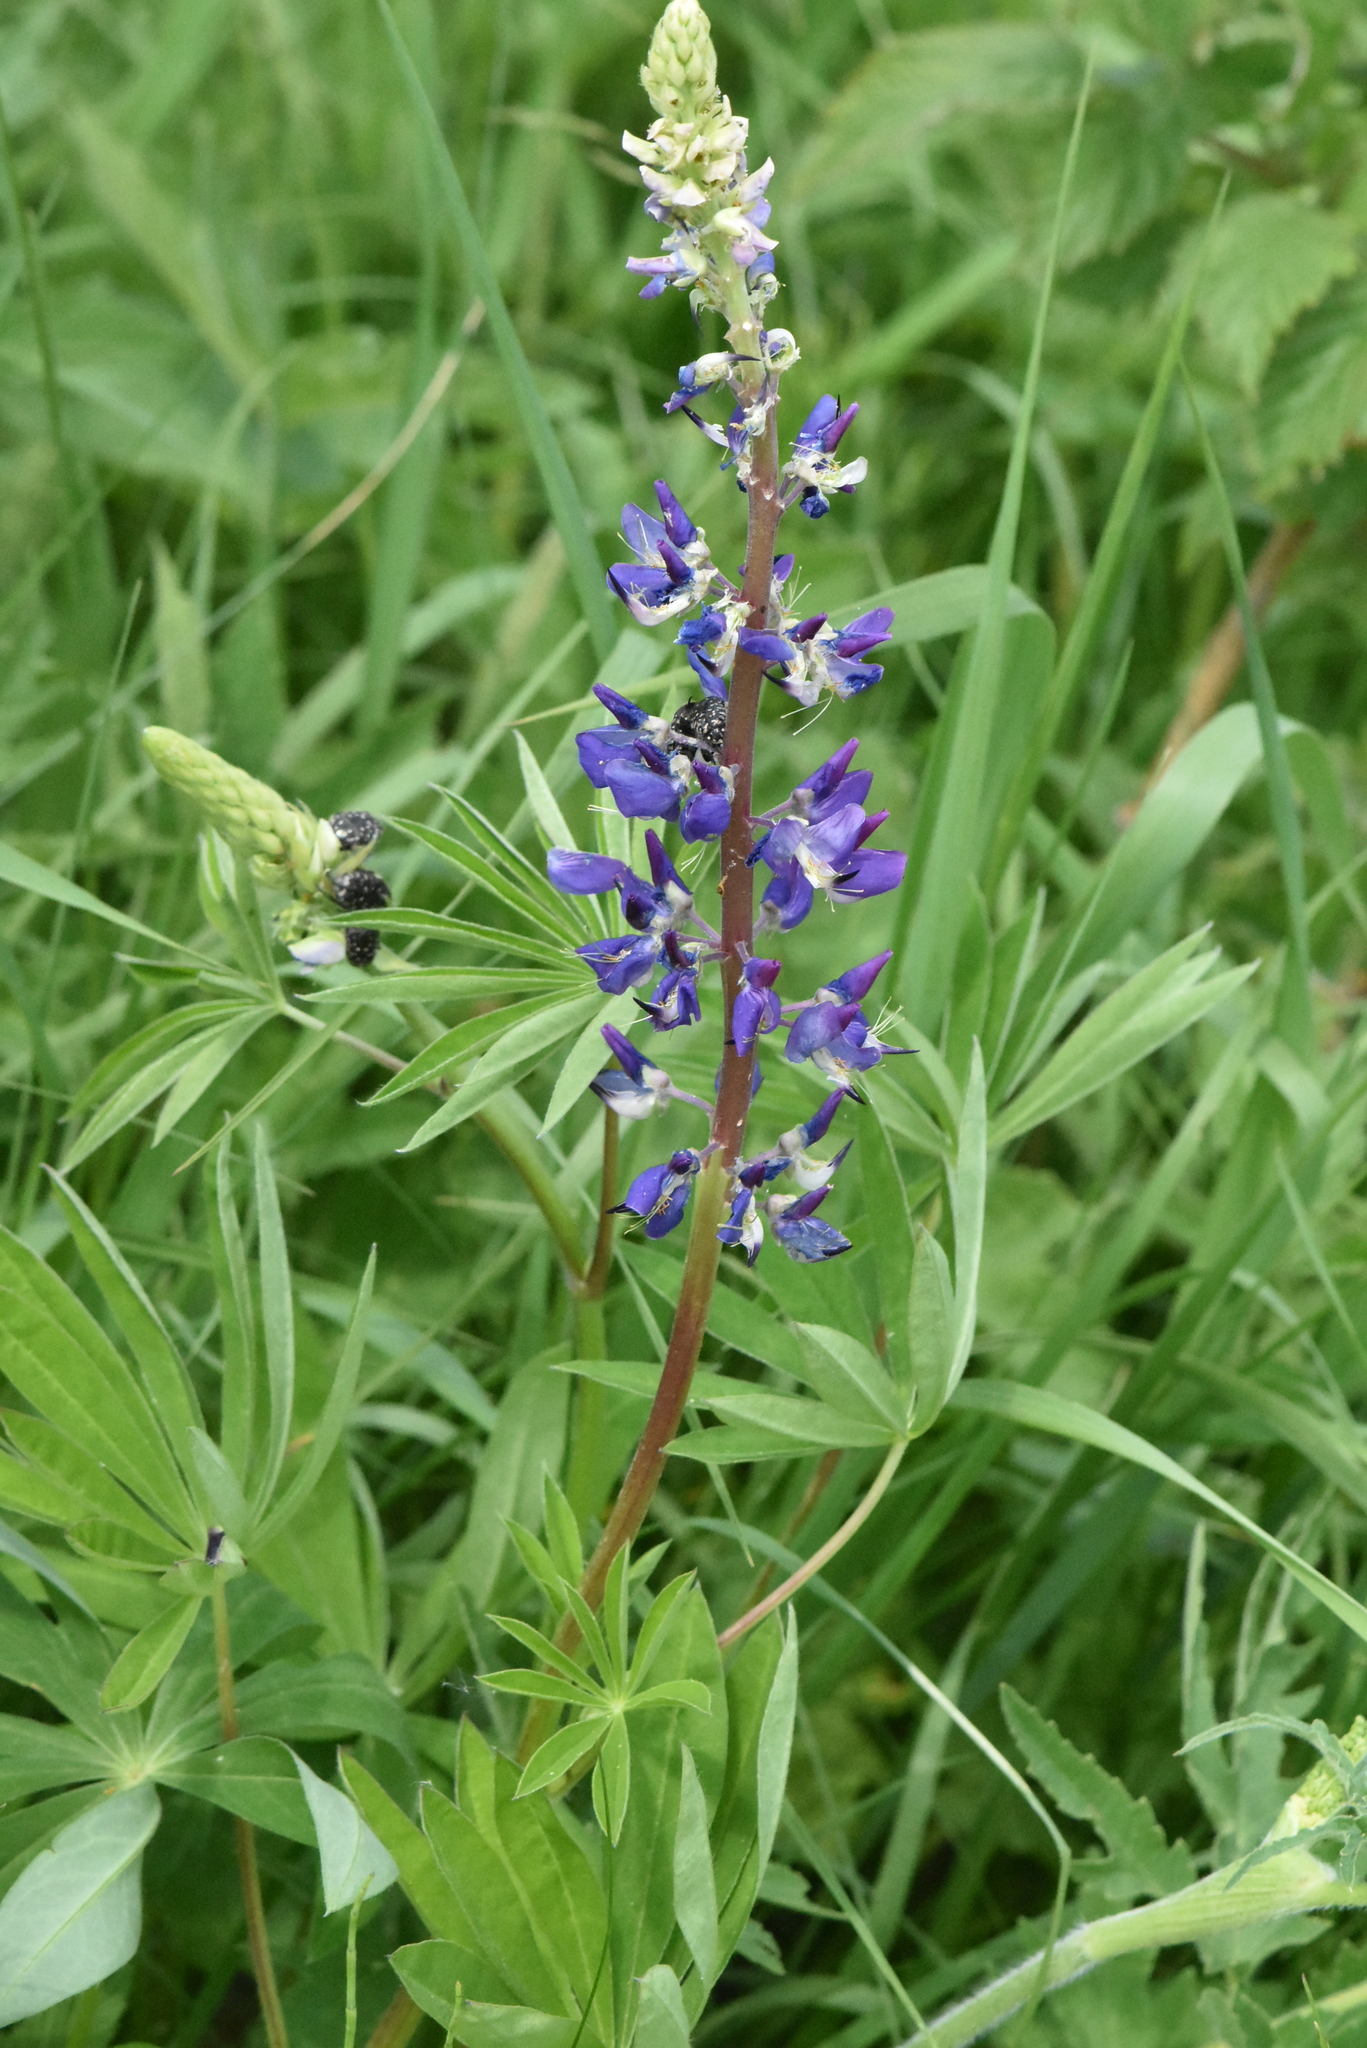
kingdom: Plantae
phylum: Tracheophyta
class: Magnoliopsida
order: Fabales
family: Fabaceae
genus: Lupinus
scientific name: Lupinus polyphyllus
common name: Garden lupin
